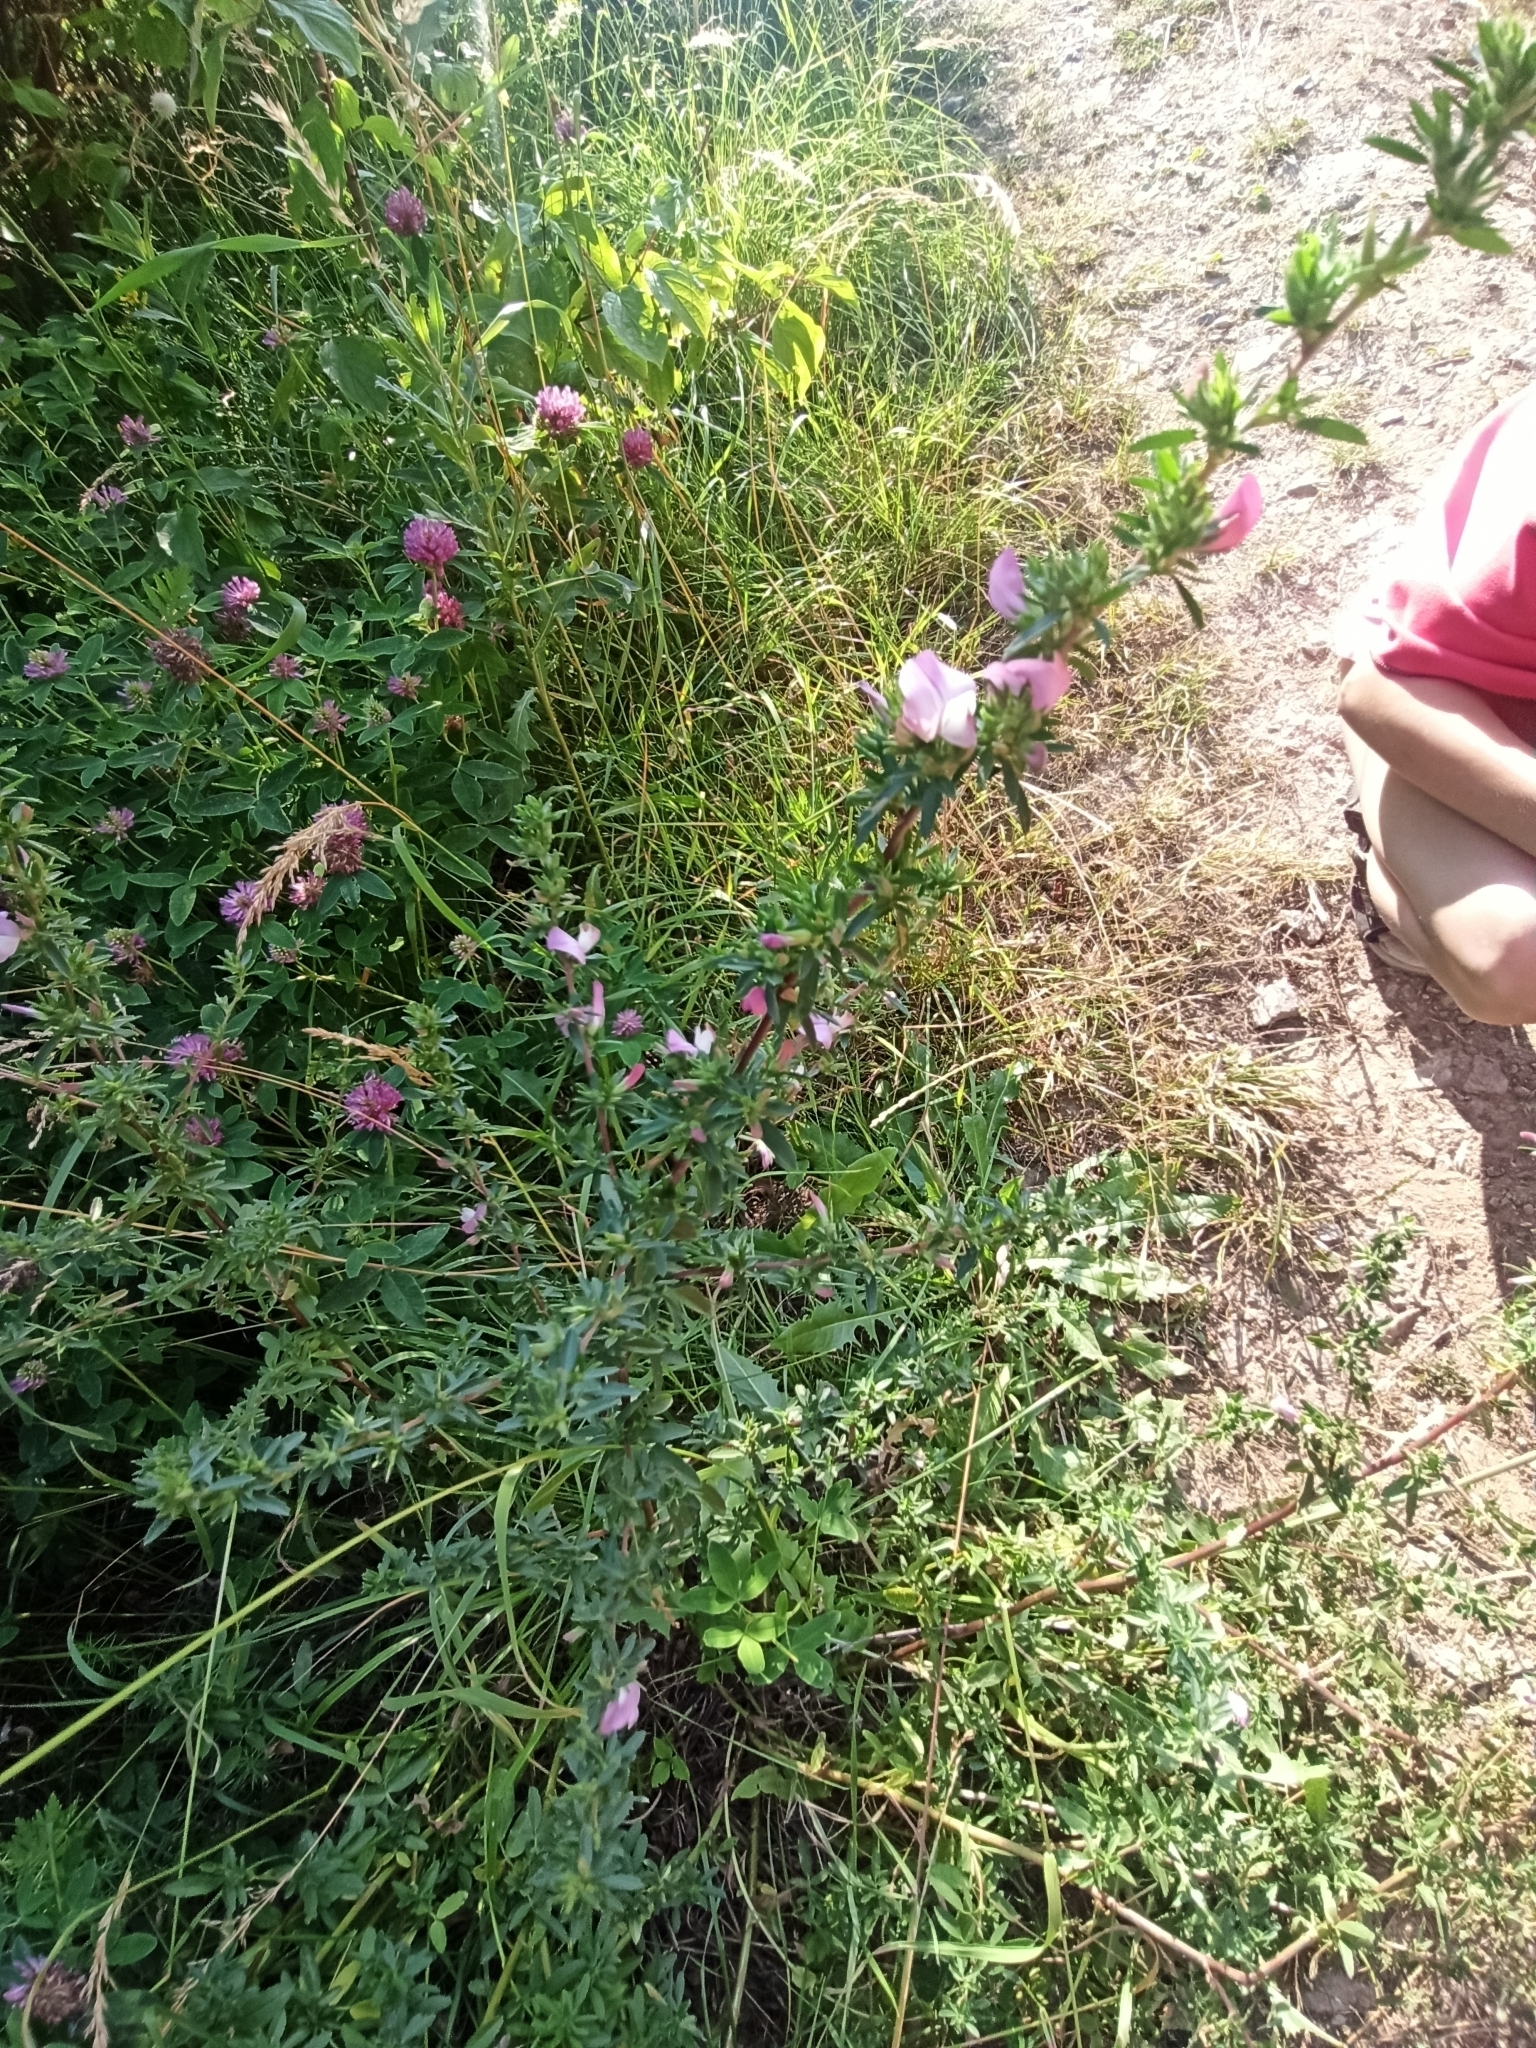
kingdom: Plantae
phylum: Tracheophyta
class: Magnoliopsida
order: Fabales
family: Fabaceae
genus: Ononis
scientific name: Ononis spinosa
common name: Spiny restharrow
